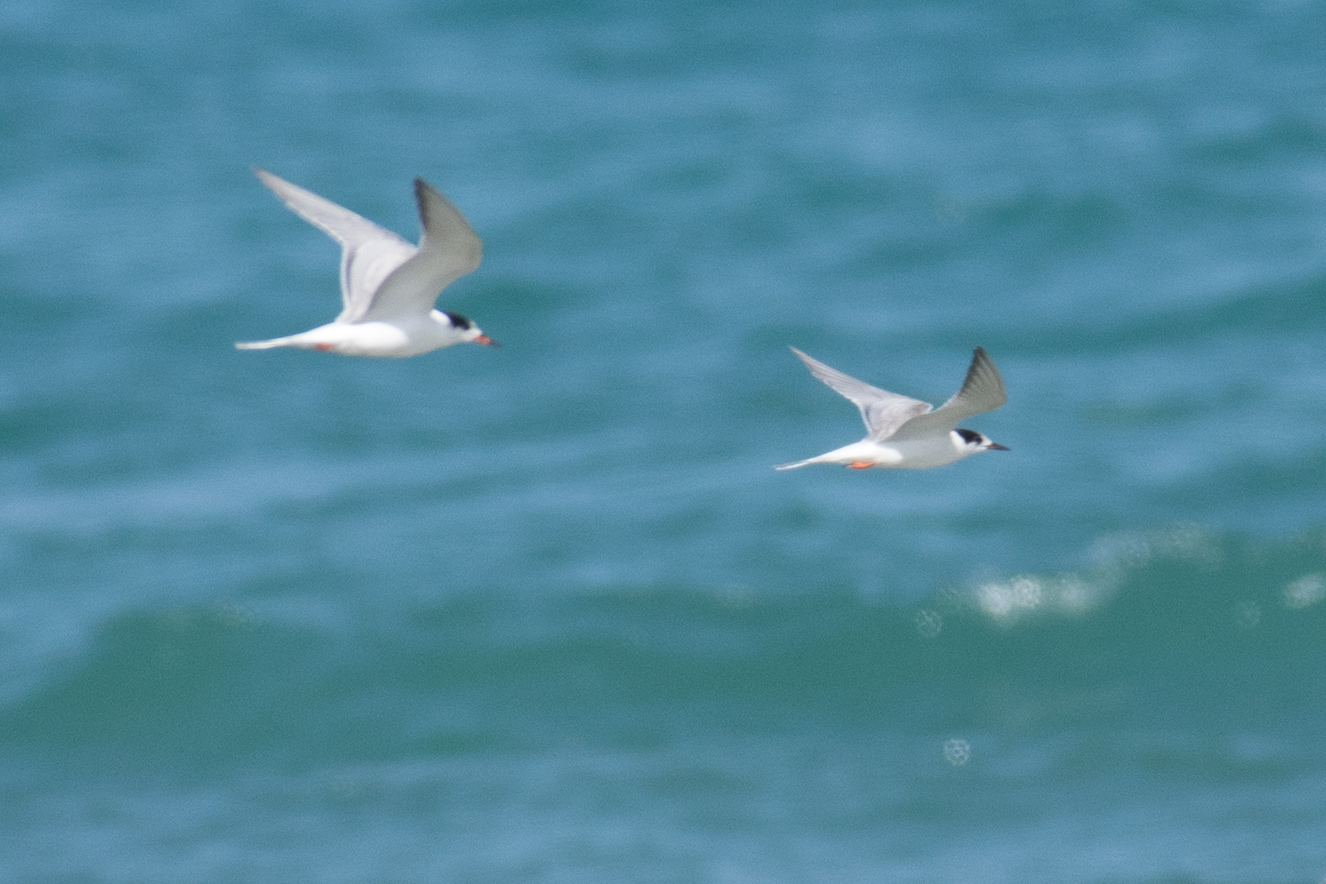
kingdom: Animalia
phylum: Chordata
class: Aves
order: Charadriiformes
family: Laridae
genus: Sterna
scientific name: Sterna hirundo
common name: Common tern
